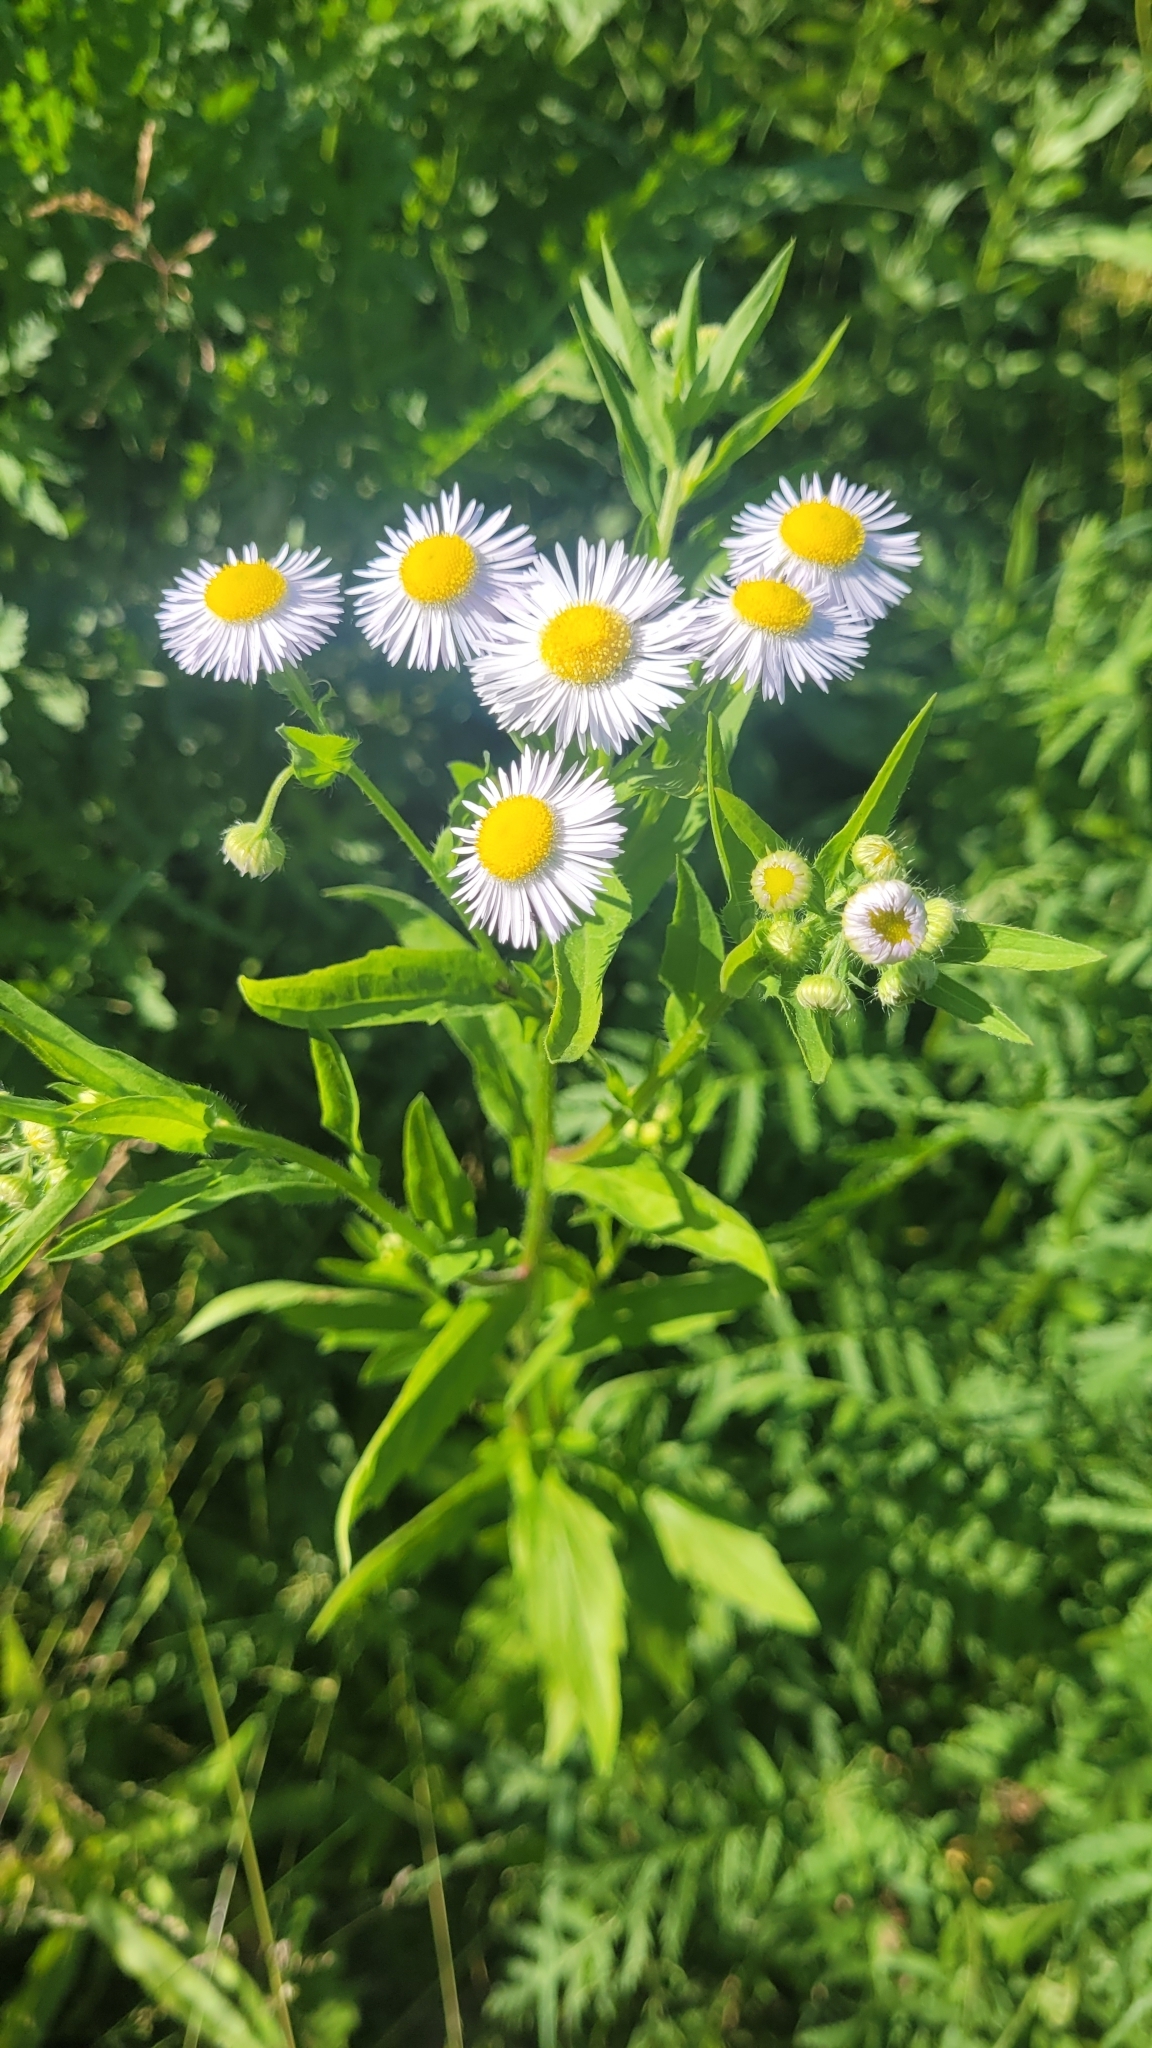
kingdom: Plantae
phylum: Tracheophyta
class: Magnoliopsida
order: Asterales
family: Asteraceae
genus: Erigeron
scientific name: Erigeron annuus
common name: Tall fleabane
